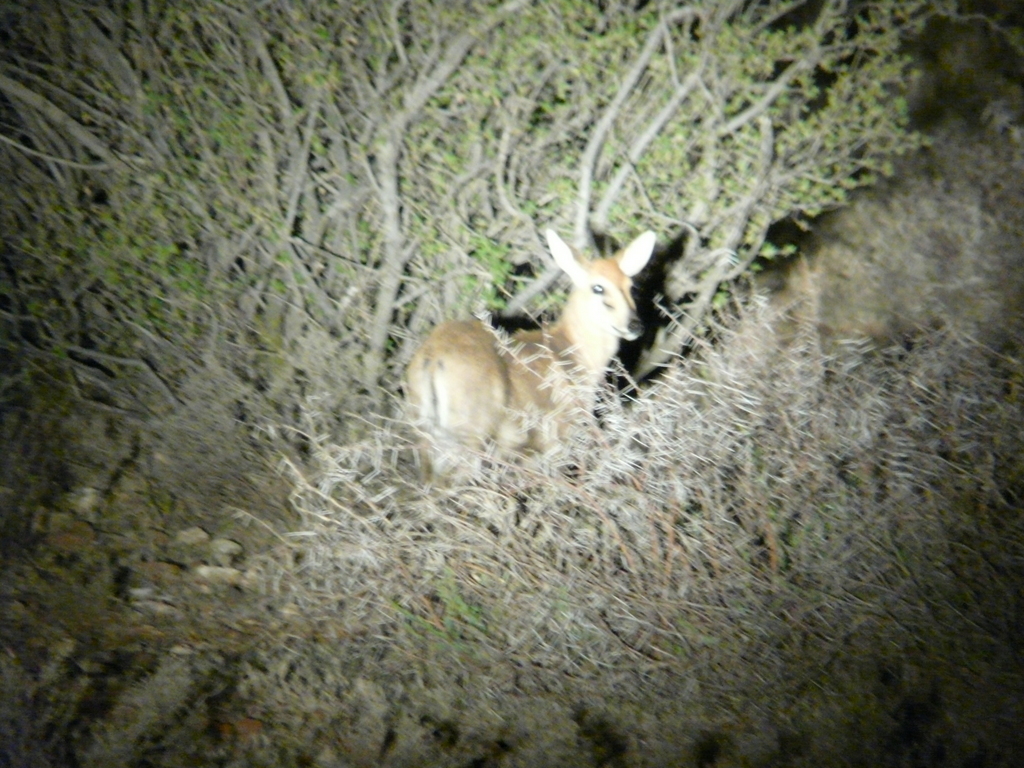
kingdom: Animalia
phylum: Chordata
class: Mammalia
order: Artiodactyla
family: Bovidae
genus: Sylvicapra
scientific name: Sylvicapra grimmia
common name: Bush duiker
